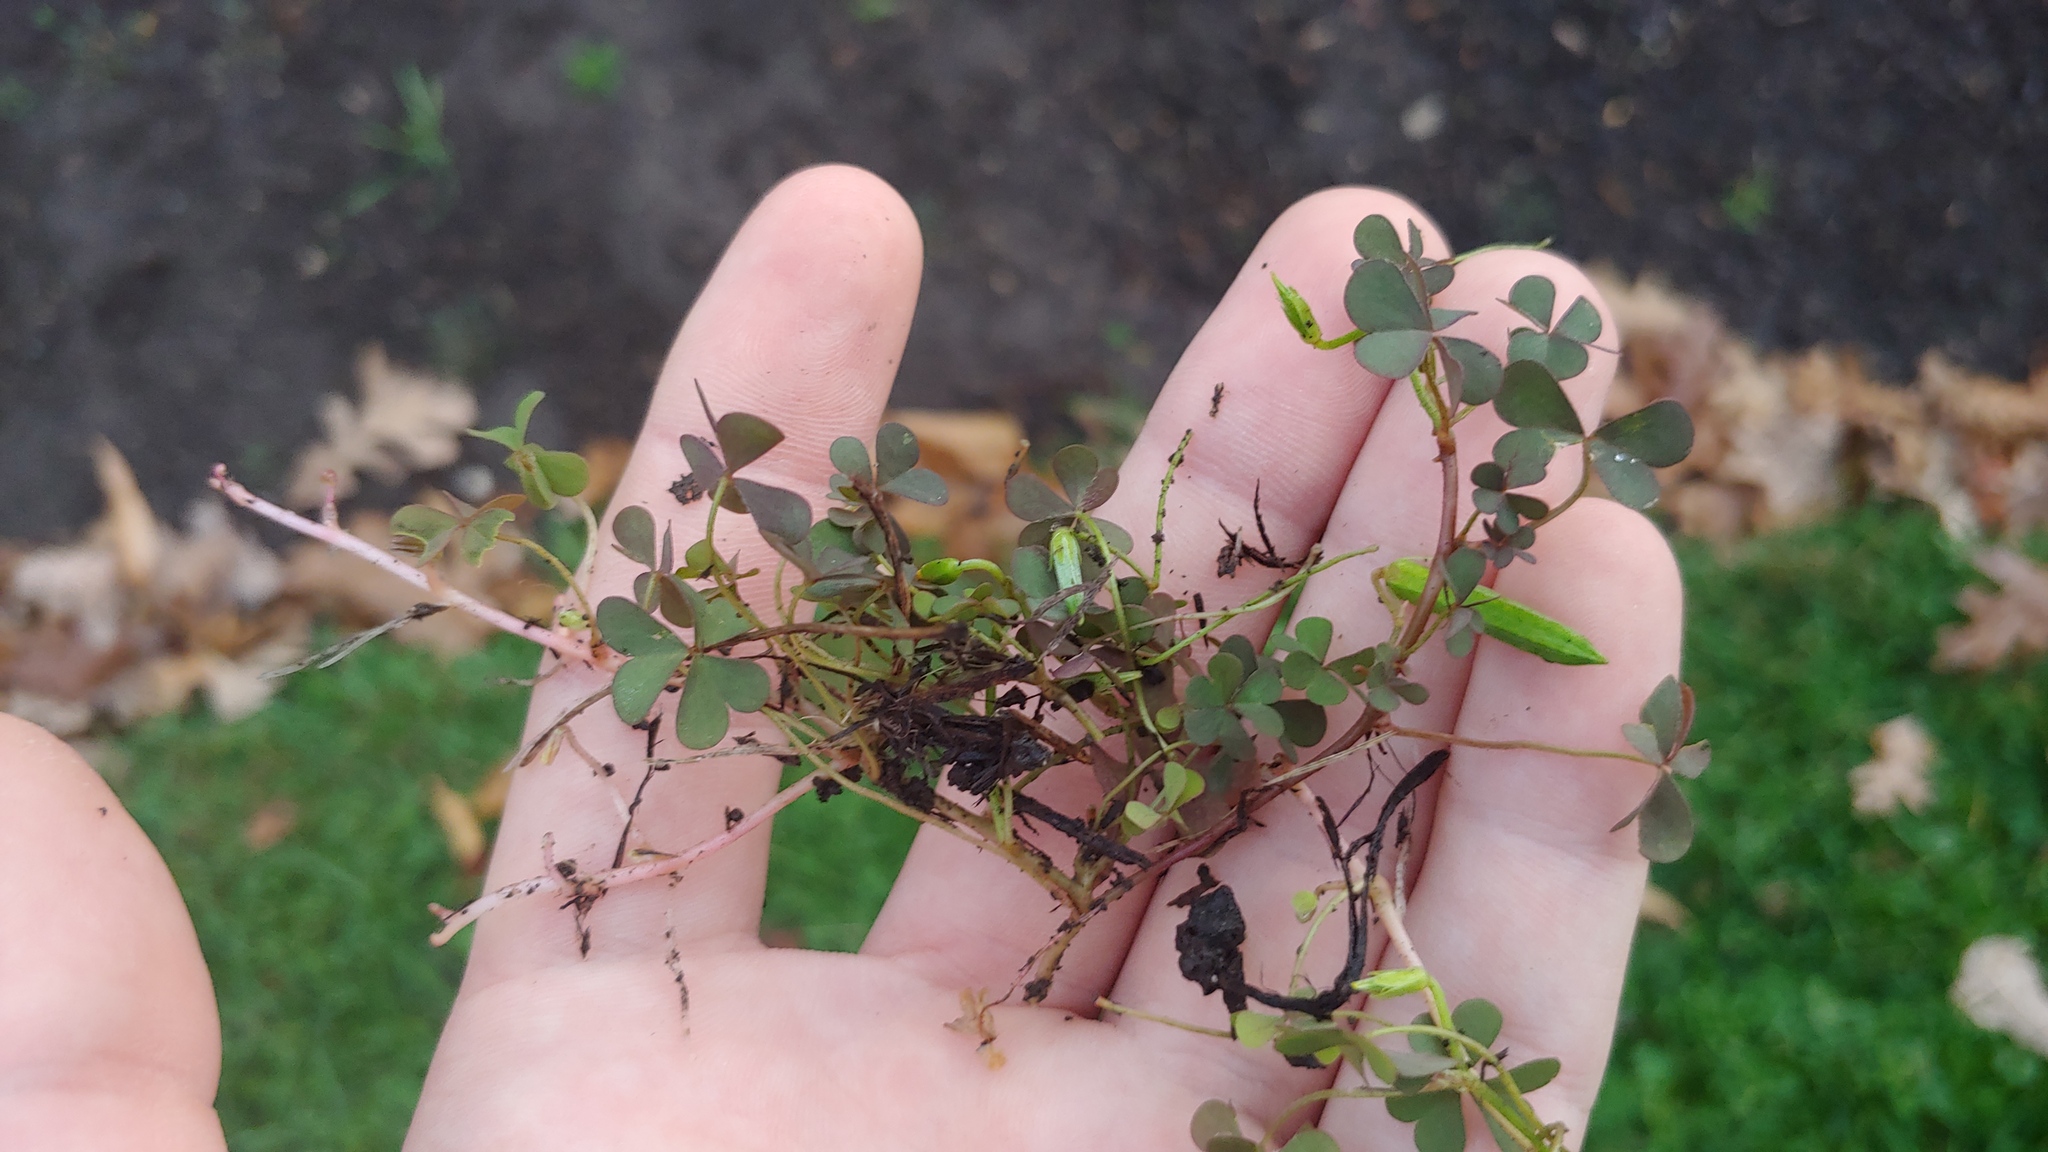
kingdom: Plantae
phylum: Tracheophyta
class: Magnoliopsida
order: Oxalidales
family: Oxalidaceae
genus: Oxalis
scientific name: Oxalis corniculata
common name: Procumbent yellow-sorrel
